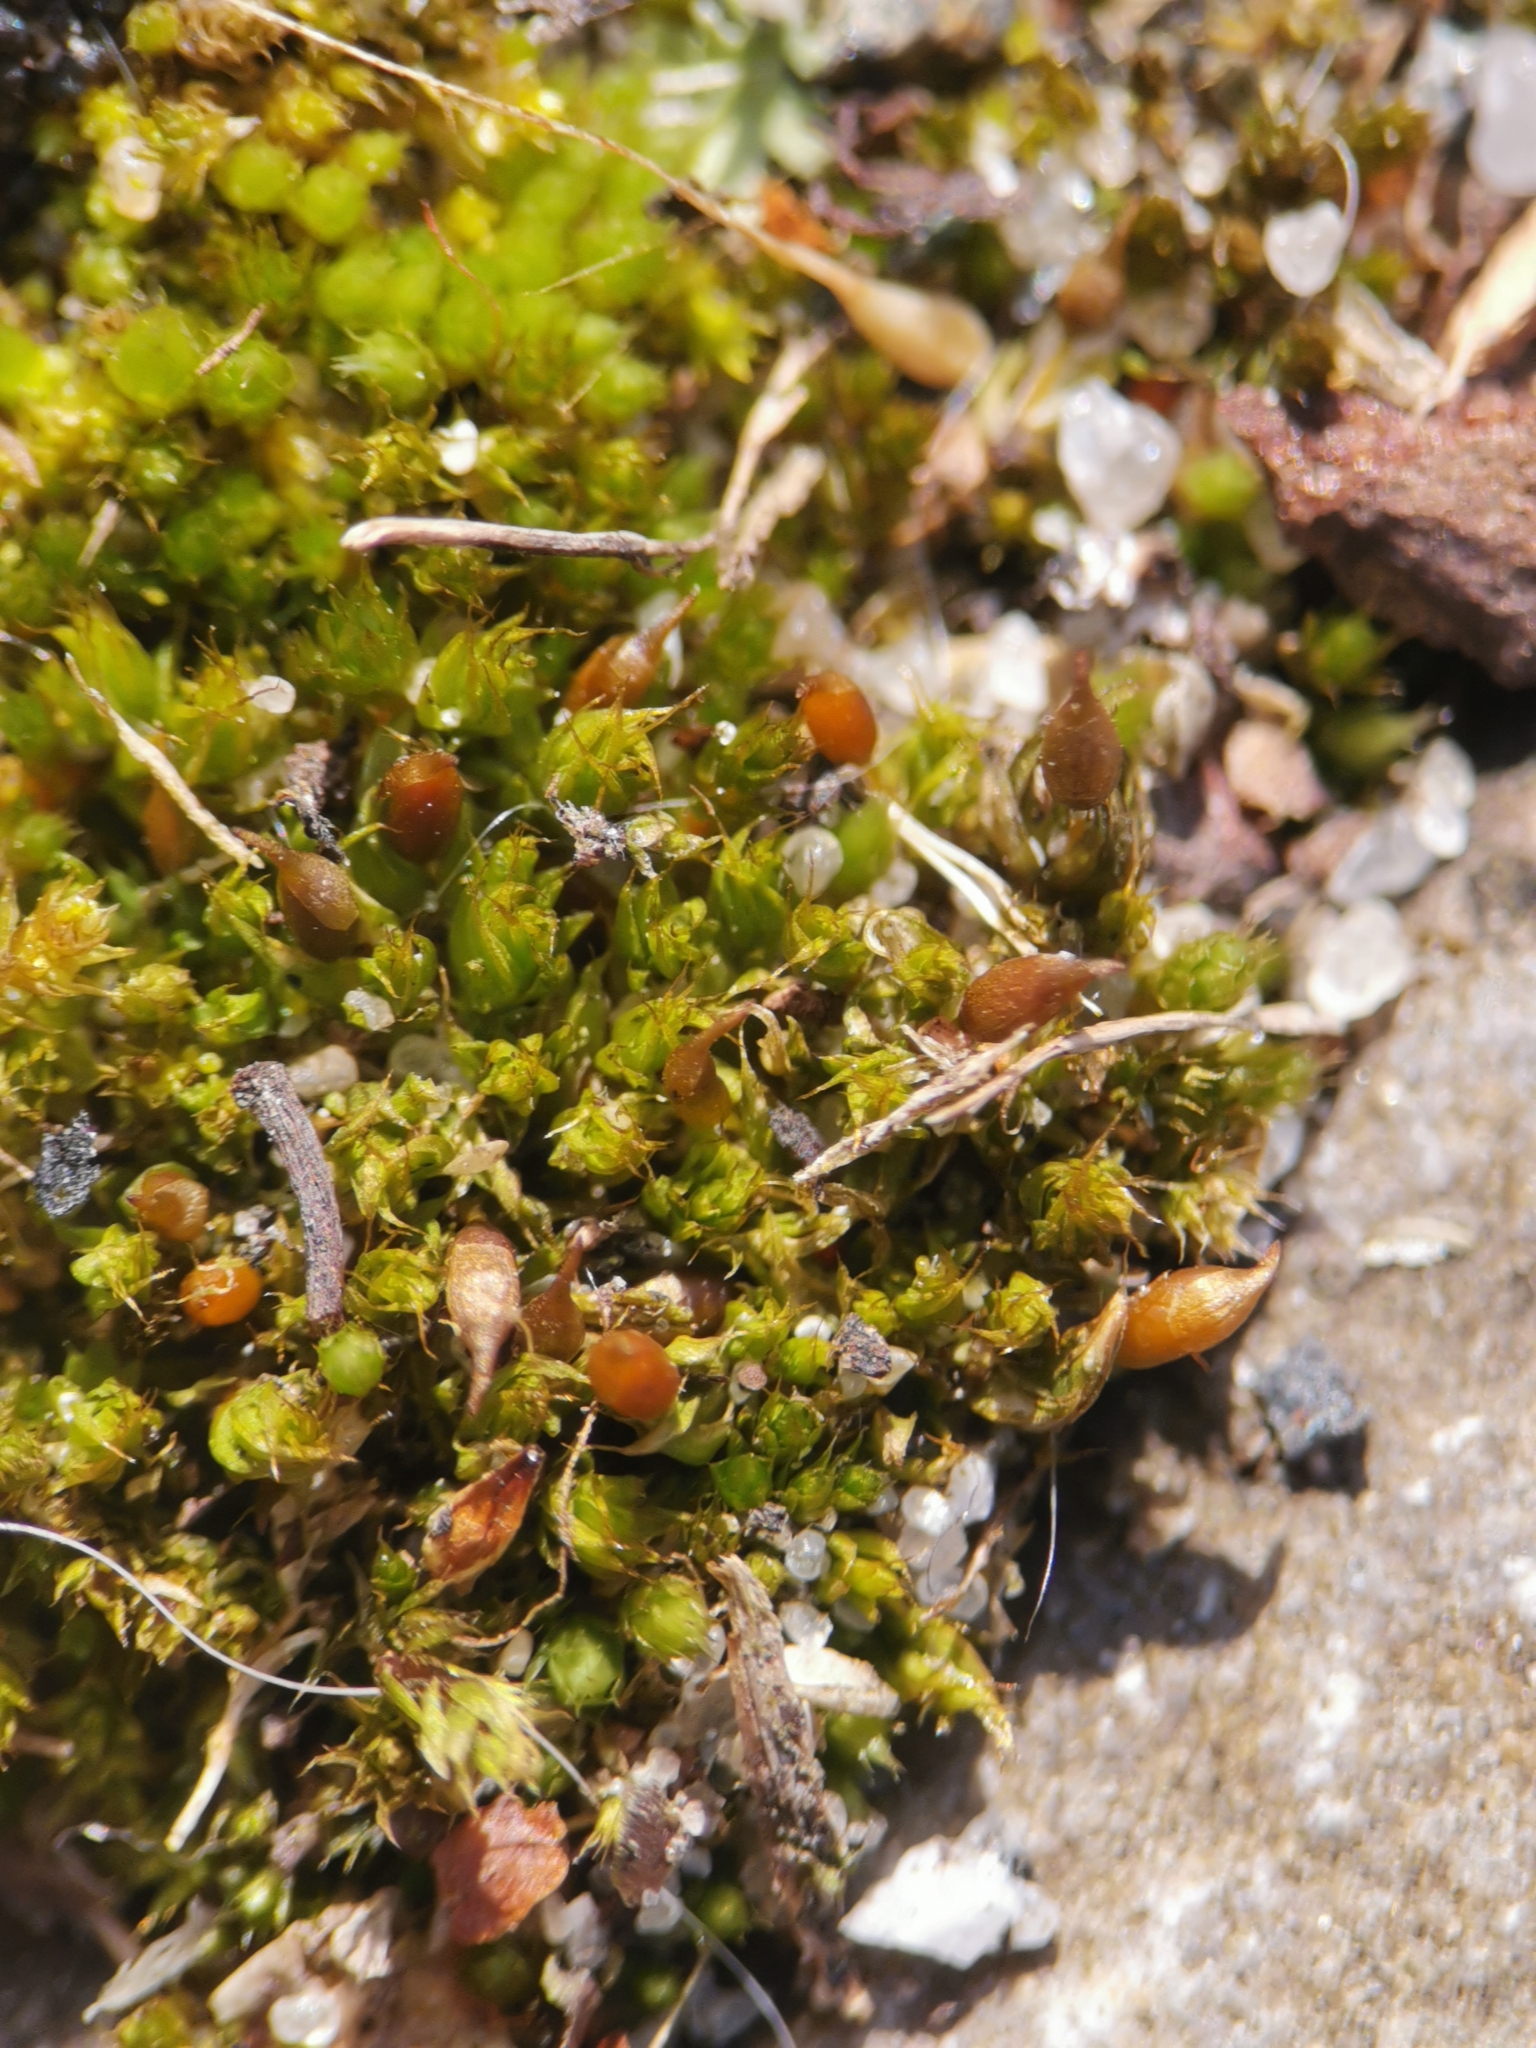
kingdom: Plantae
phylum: Bryophyta
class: Bryopsida
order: Pottiales
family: Pottiaceae
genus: Tortula
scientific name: Tortula protobryoides
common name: Tall pottia
